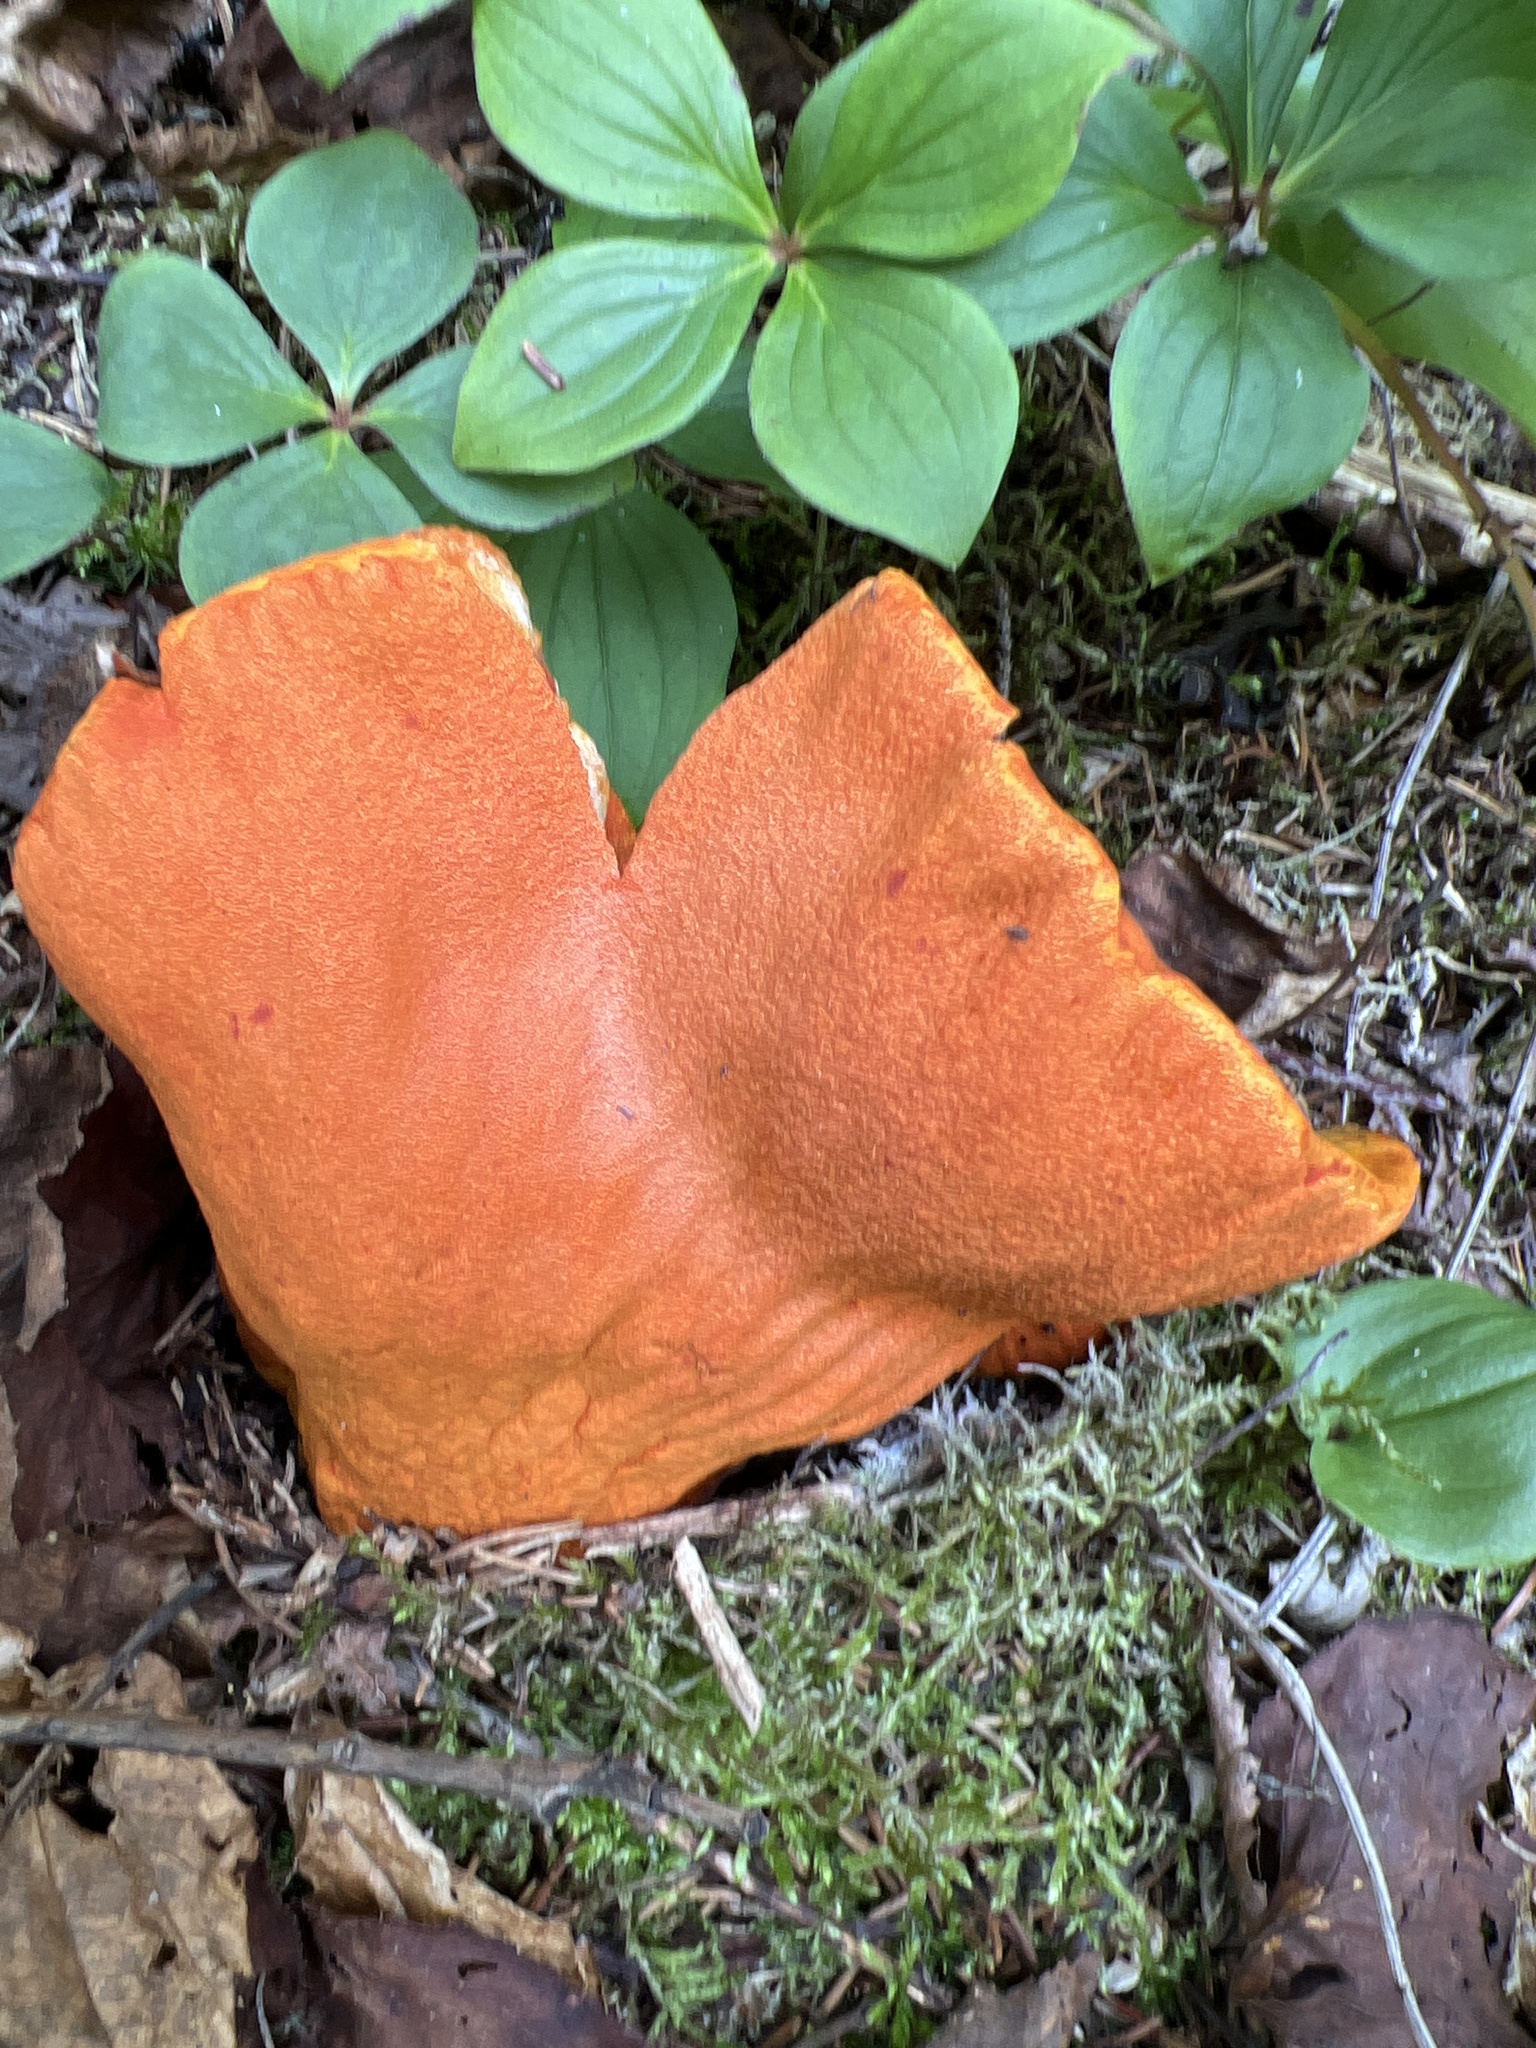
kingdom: Fungi
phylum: Ascomycota
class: Sordariomycetes
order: Hypocreales
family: Hypocreaceae
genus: Hypomyces
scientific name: Hypomyces lactifluorum
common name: Lobster mushroom
